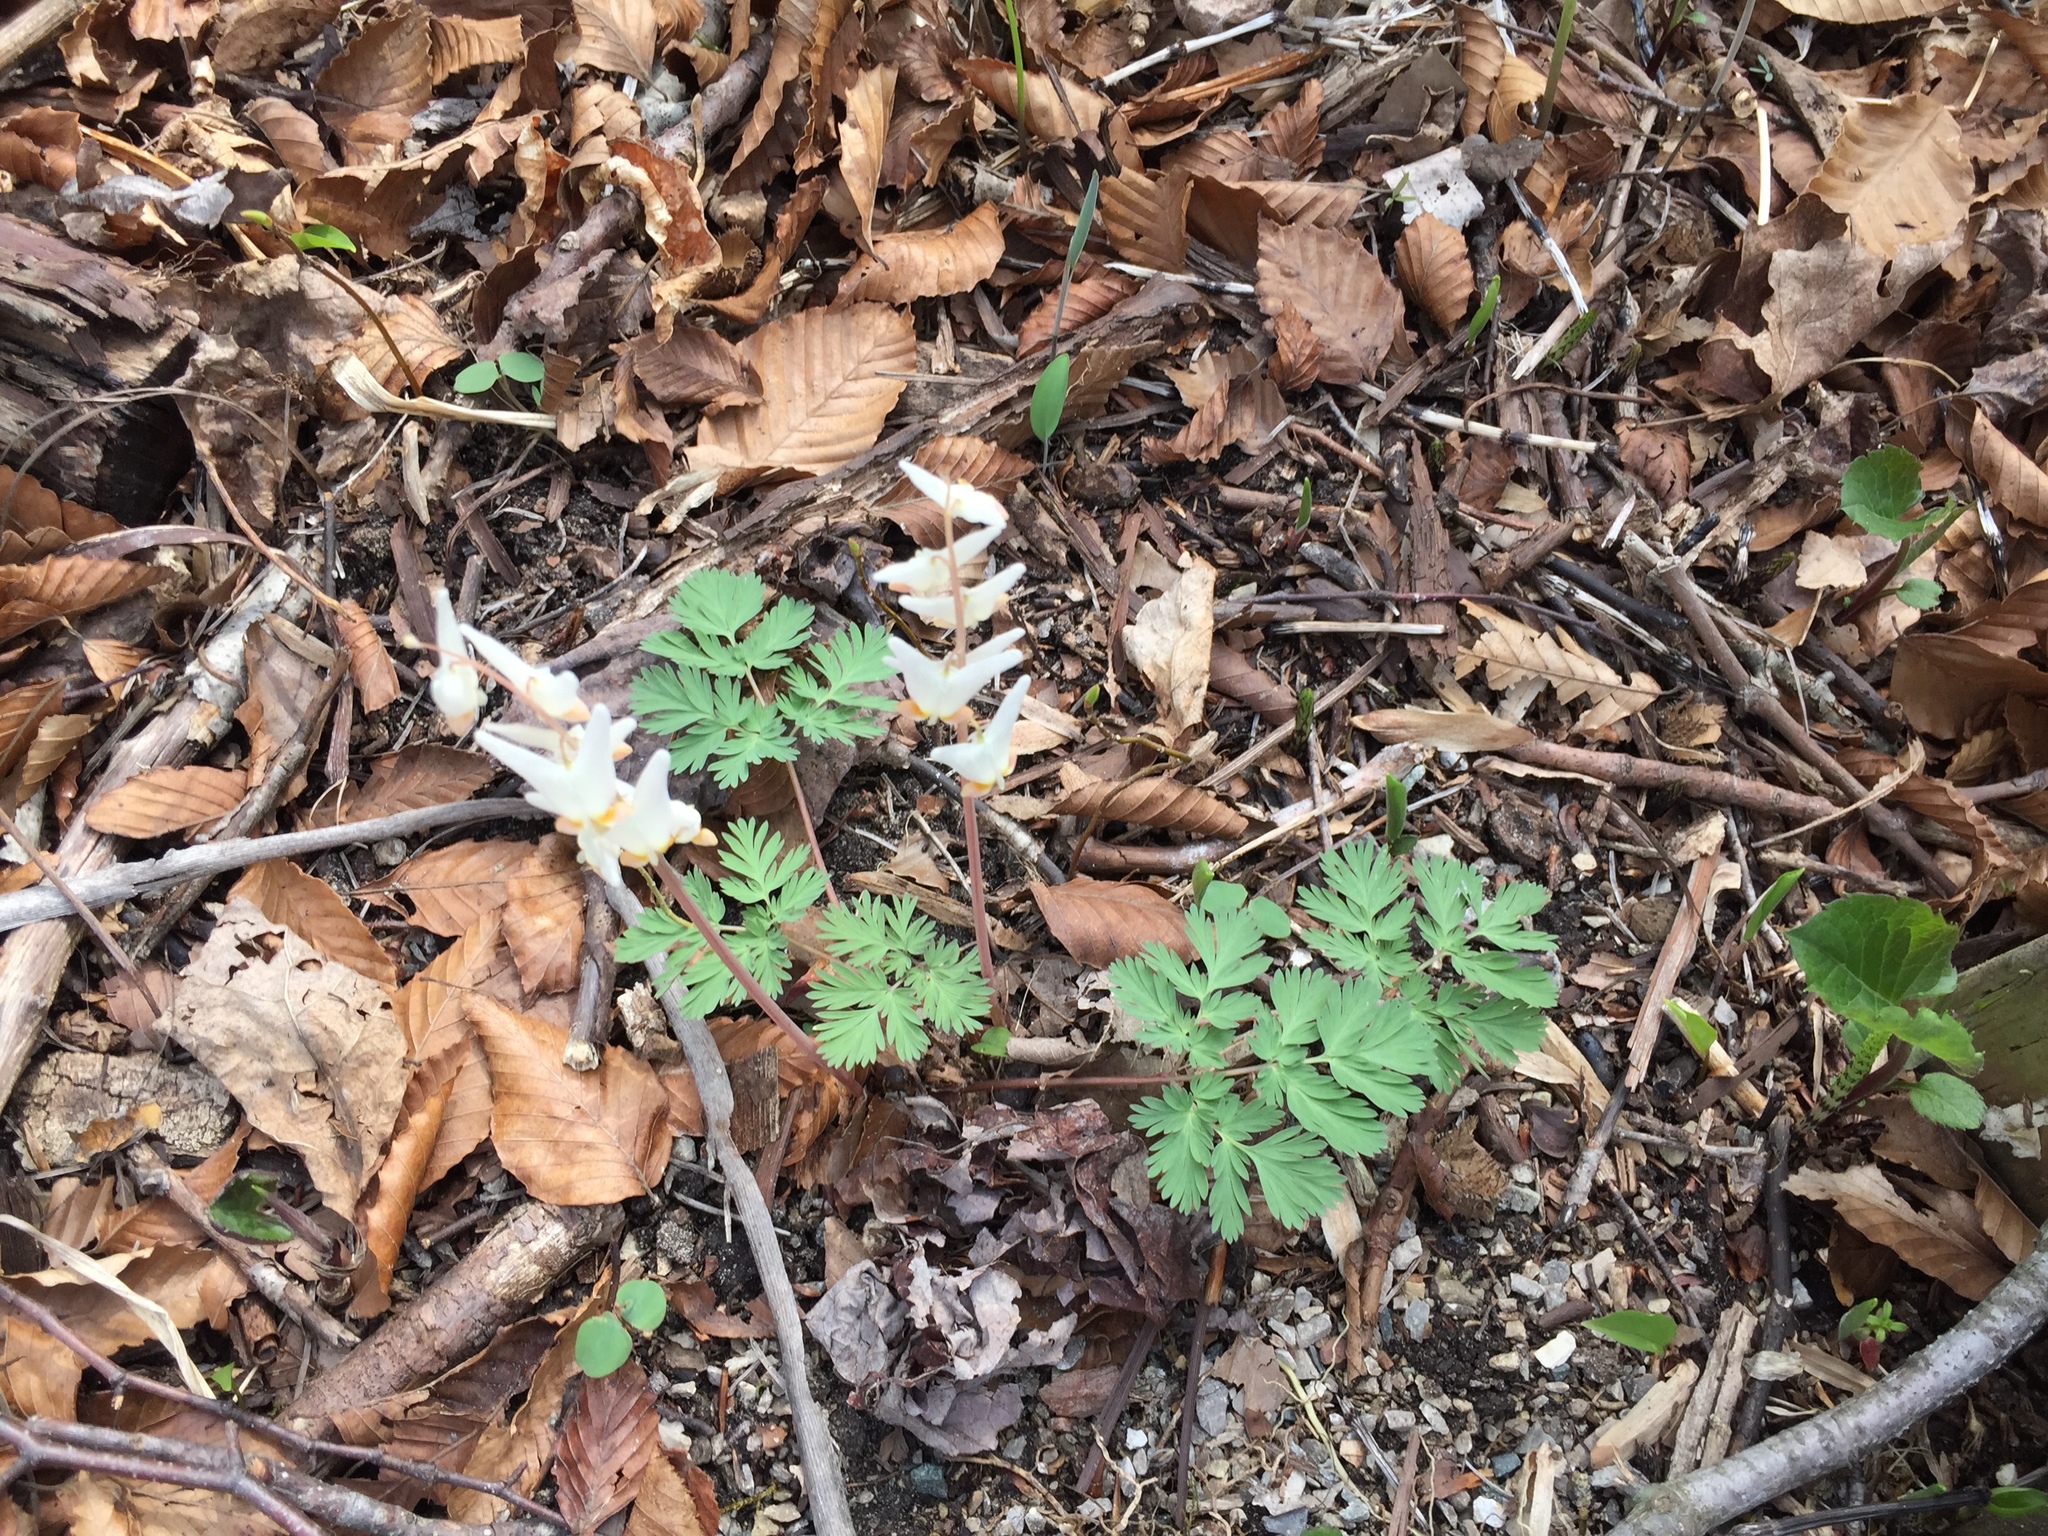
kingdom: Plantae
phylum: Tracheophyta
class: Magnoliopsida
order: Ranunculales
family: Papaveraceae
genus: Dicentra
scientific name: Dicentra cucullaria
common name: Dutchman's breeches
